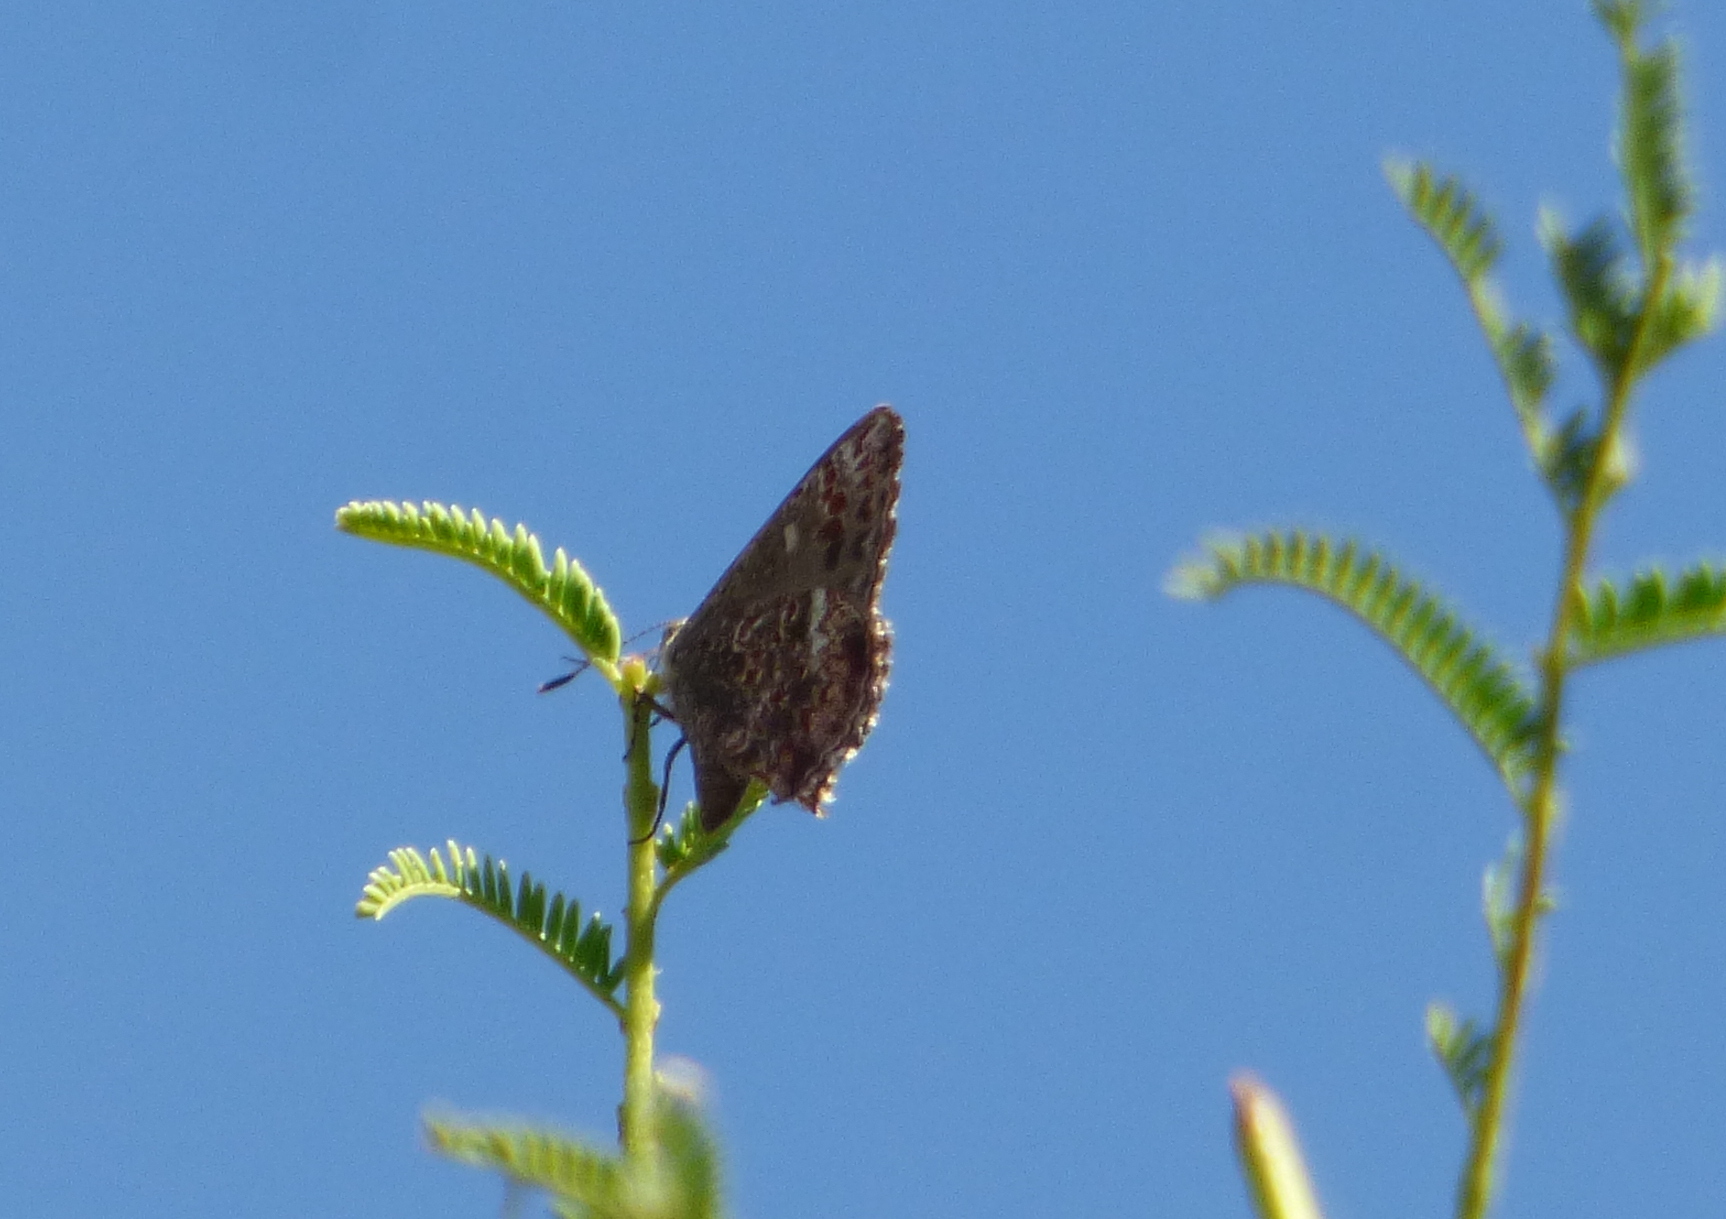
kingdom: Animalia
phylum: Arthropoda
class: Insecta
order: Lepidoptera
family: Lycaenidae
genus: Ministrymon
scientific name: Ministrymon
